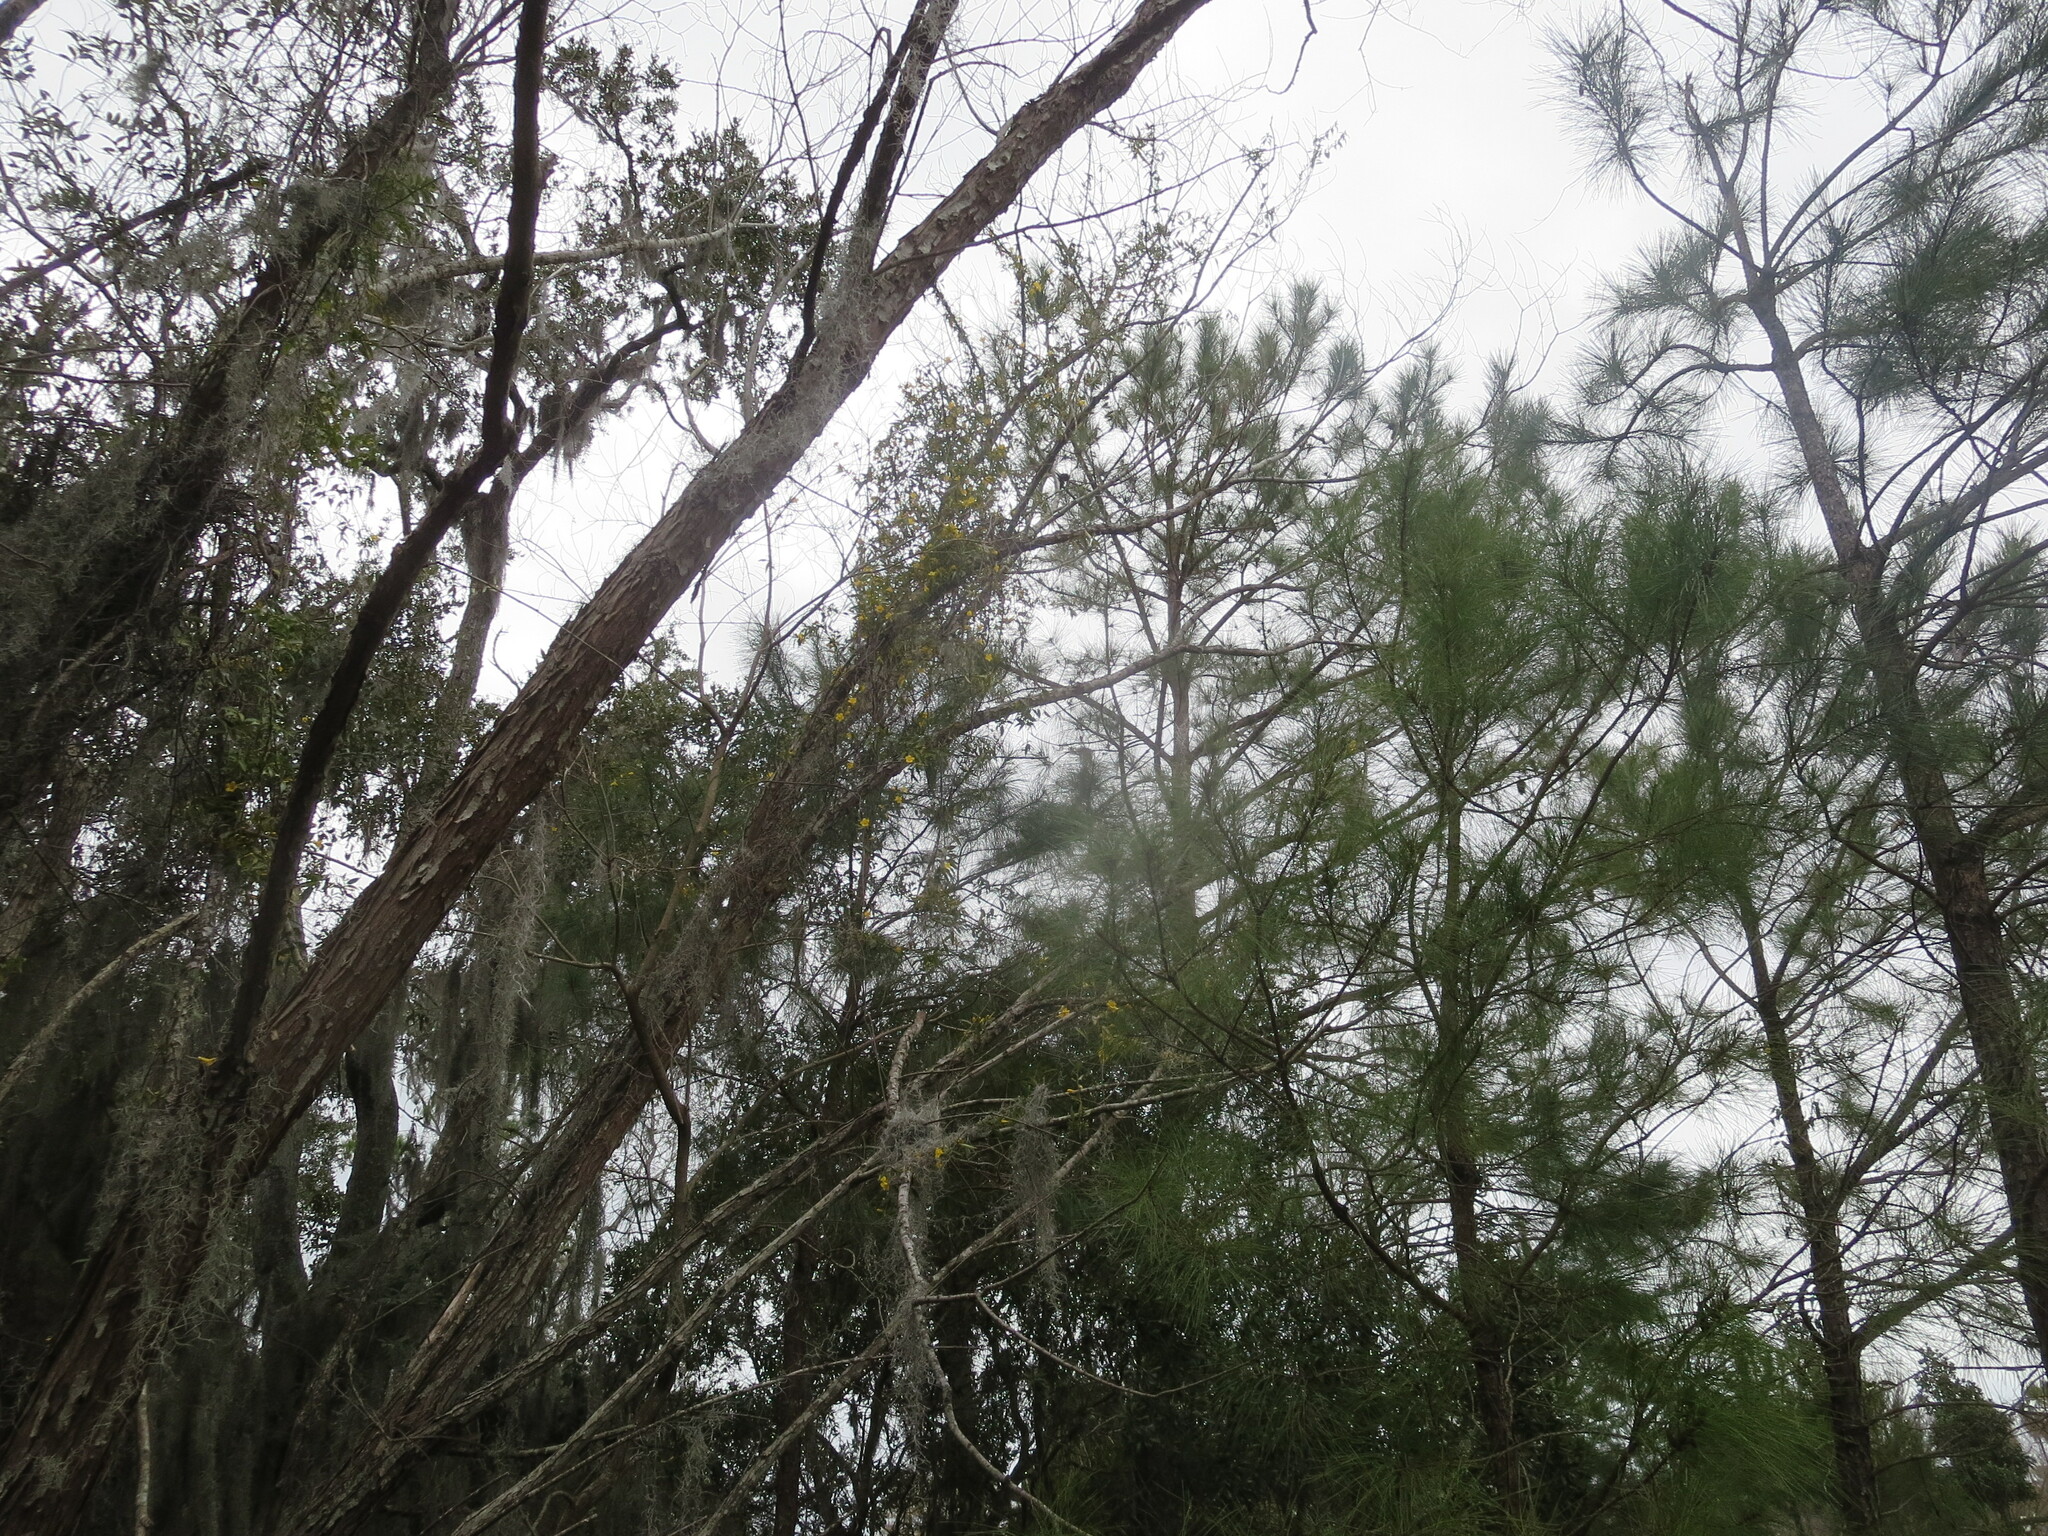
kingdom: Plantae
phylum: Tracheophyta
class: Magnoliopsida
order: Gentianales
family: Gelsemiaceae
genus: Gelsemium
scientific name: Gelsemium sempervirens
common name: Carolina-jasmine
